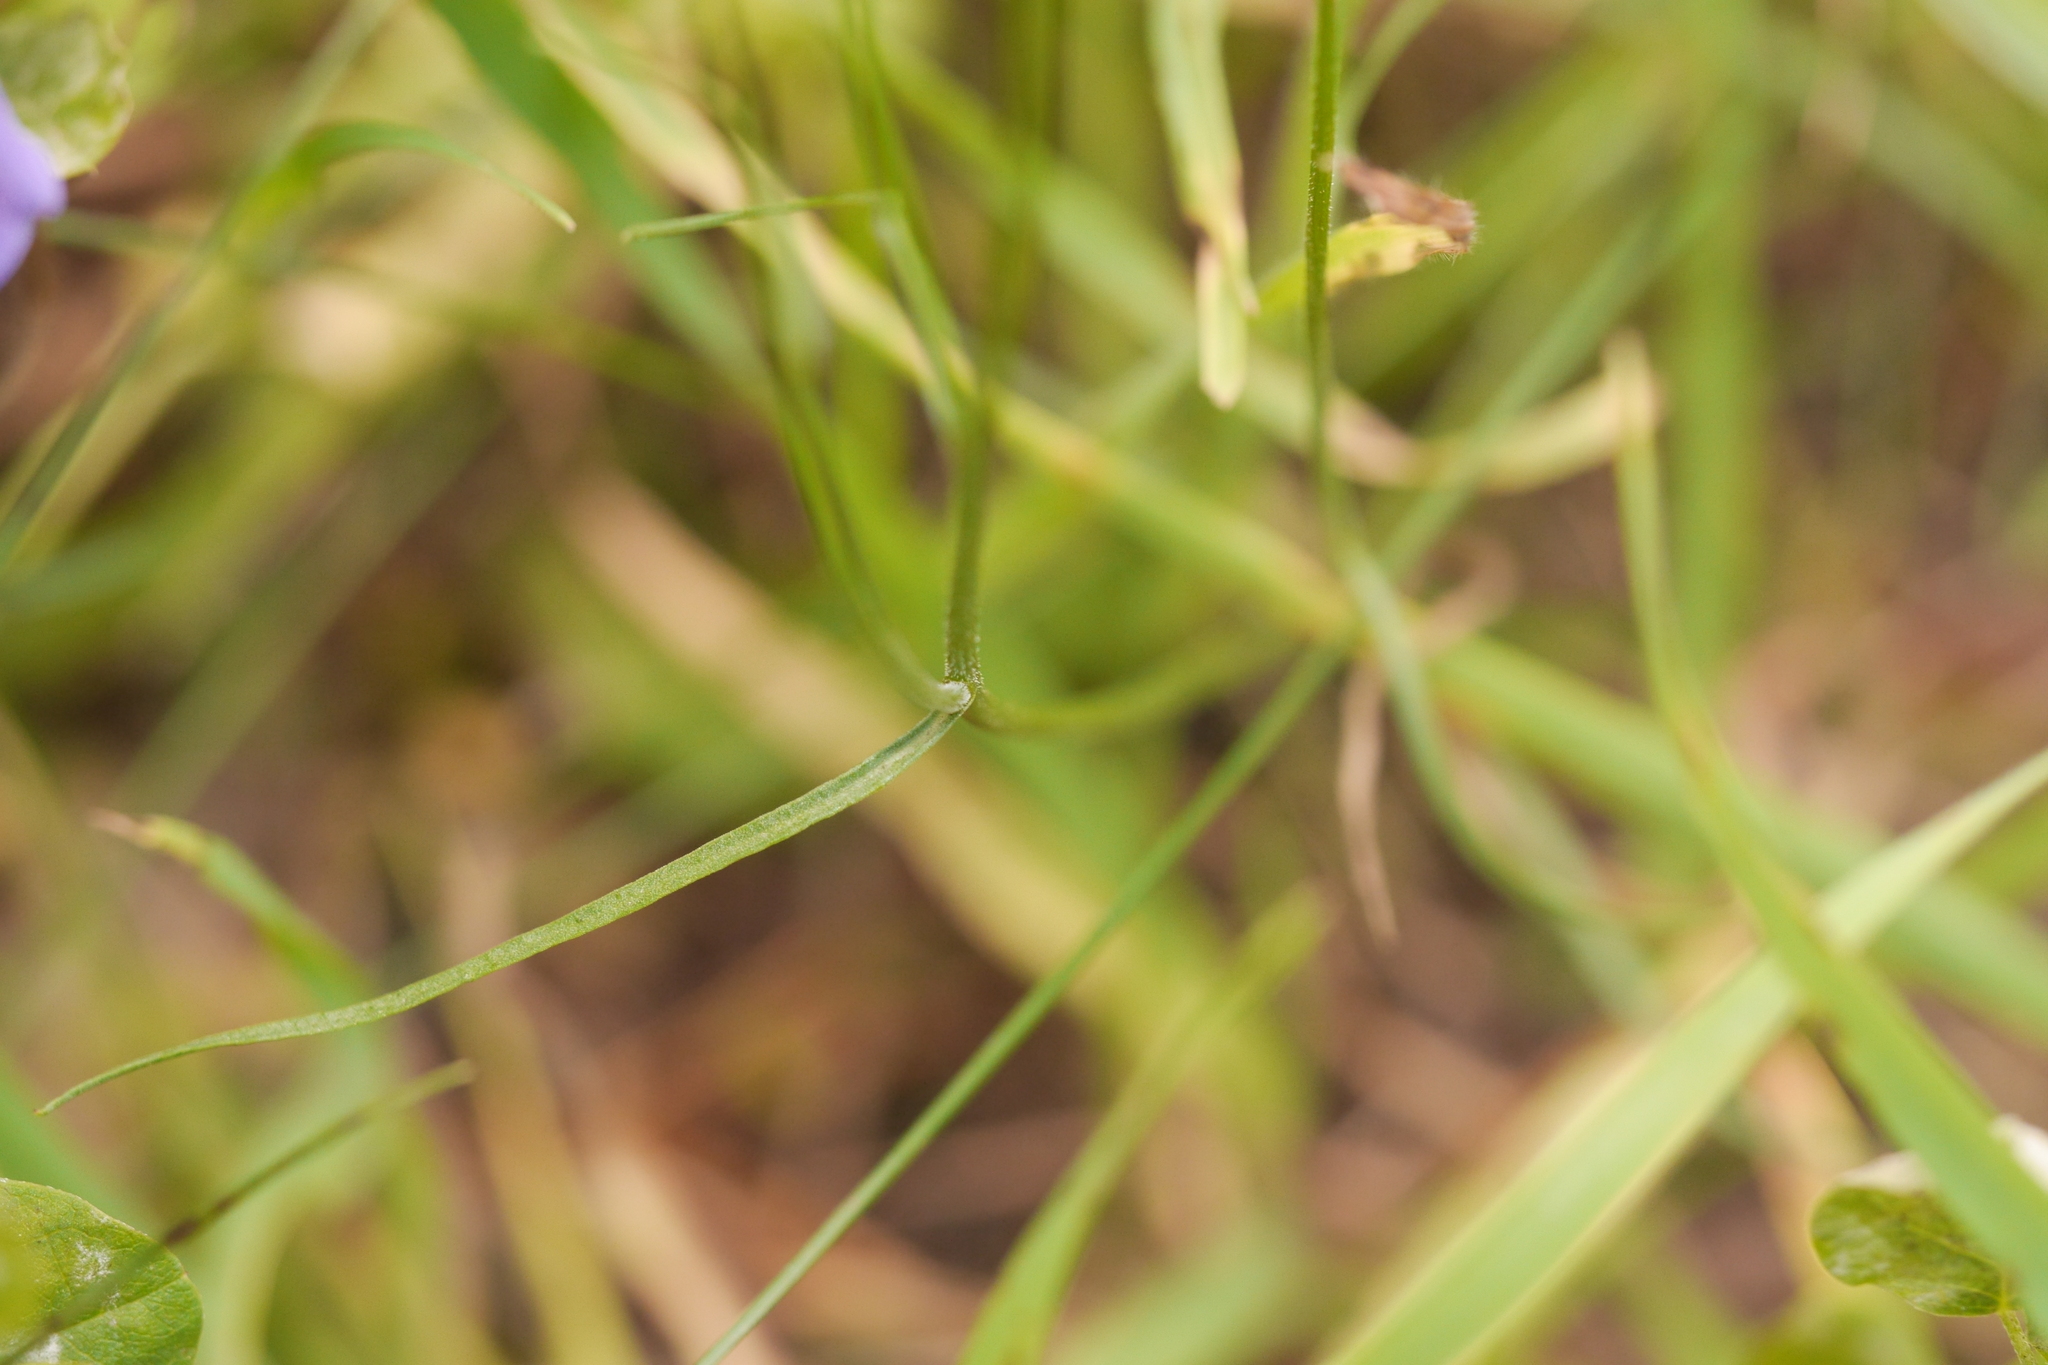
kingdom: Plantae
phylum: Tracheophyta
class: Magnoliopsida
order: Asterales
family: Campanulaceae
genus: Campanula
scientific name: Campanula rotundifolia
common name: Harebell
